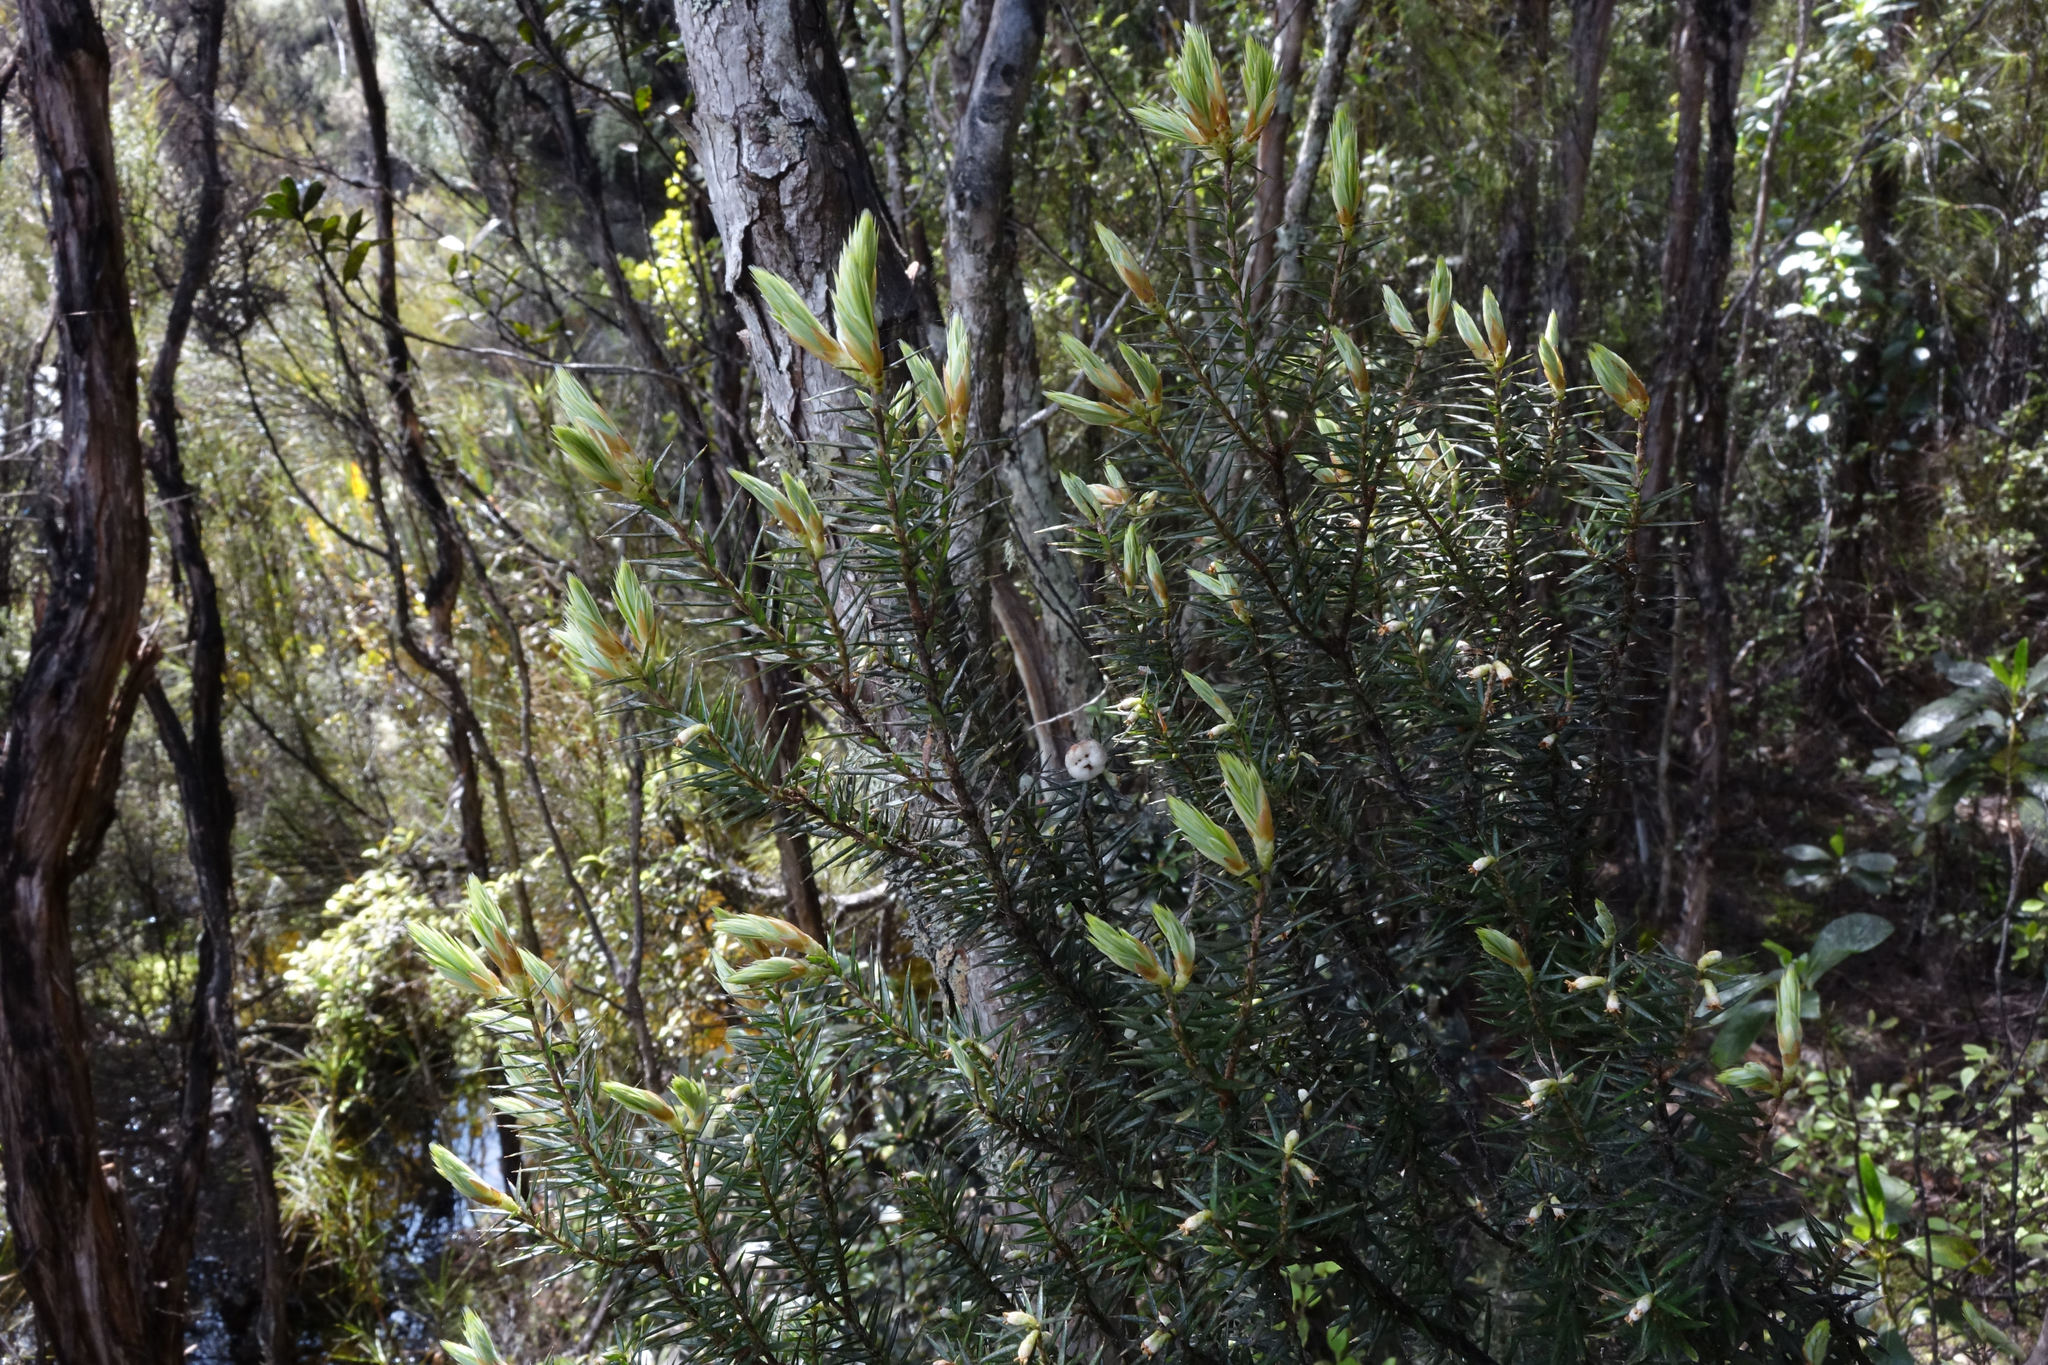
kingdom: Plantae
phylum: Tracheophyta
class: Magnoliopsida
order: Ericales
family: Ericaceae
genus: Leptecophylla
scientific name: Leptecophylla juniperina
